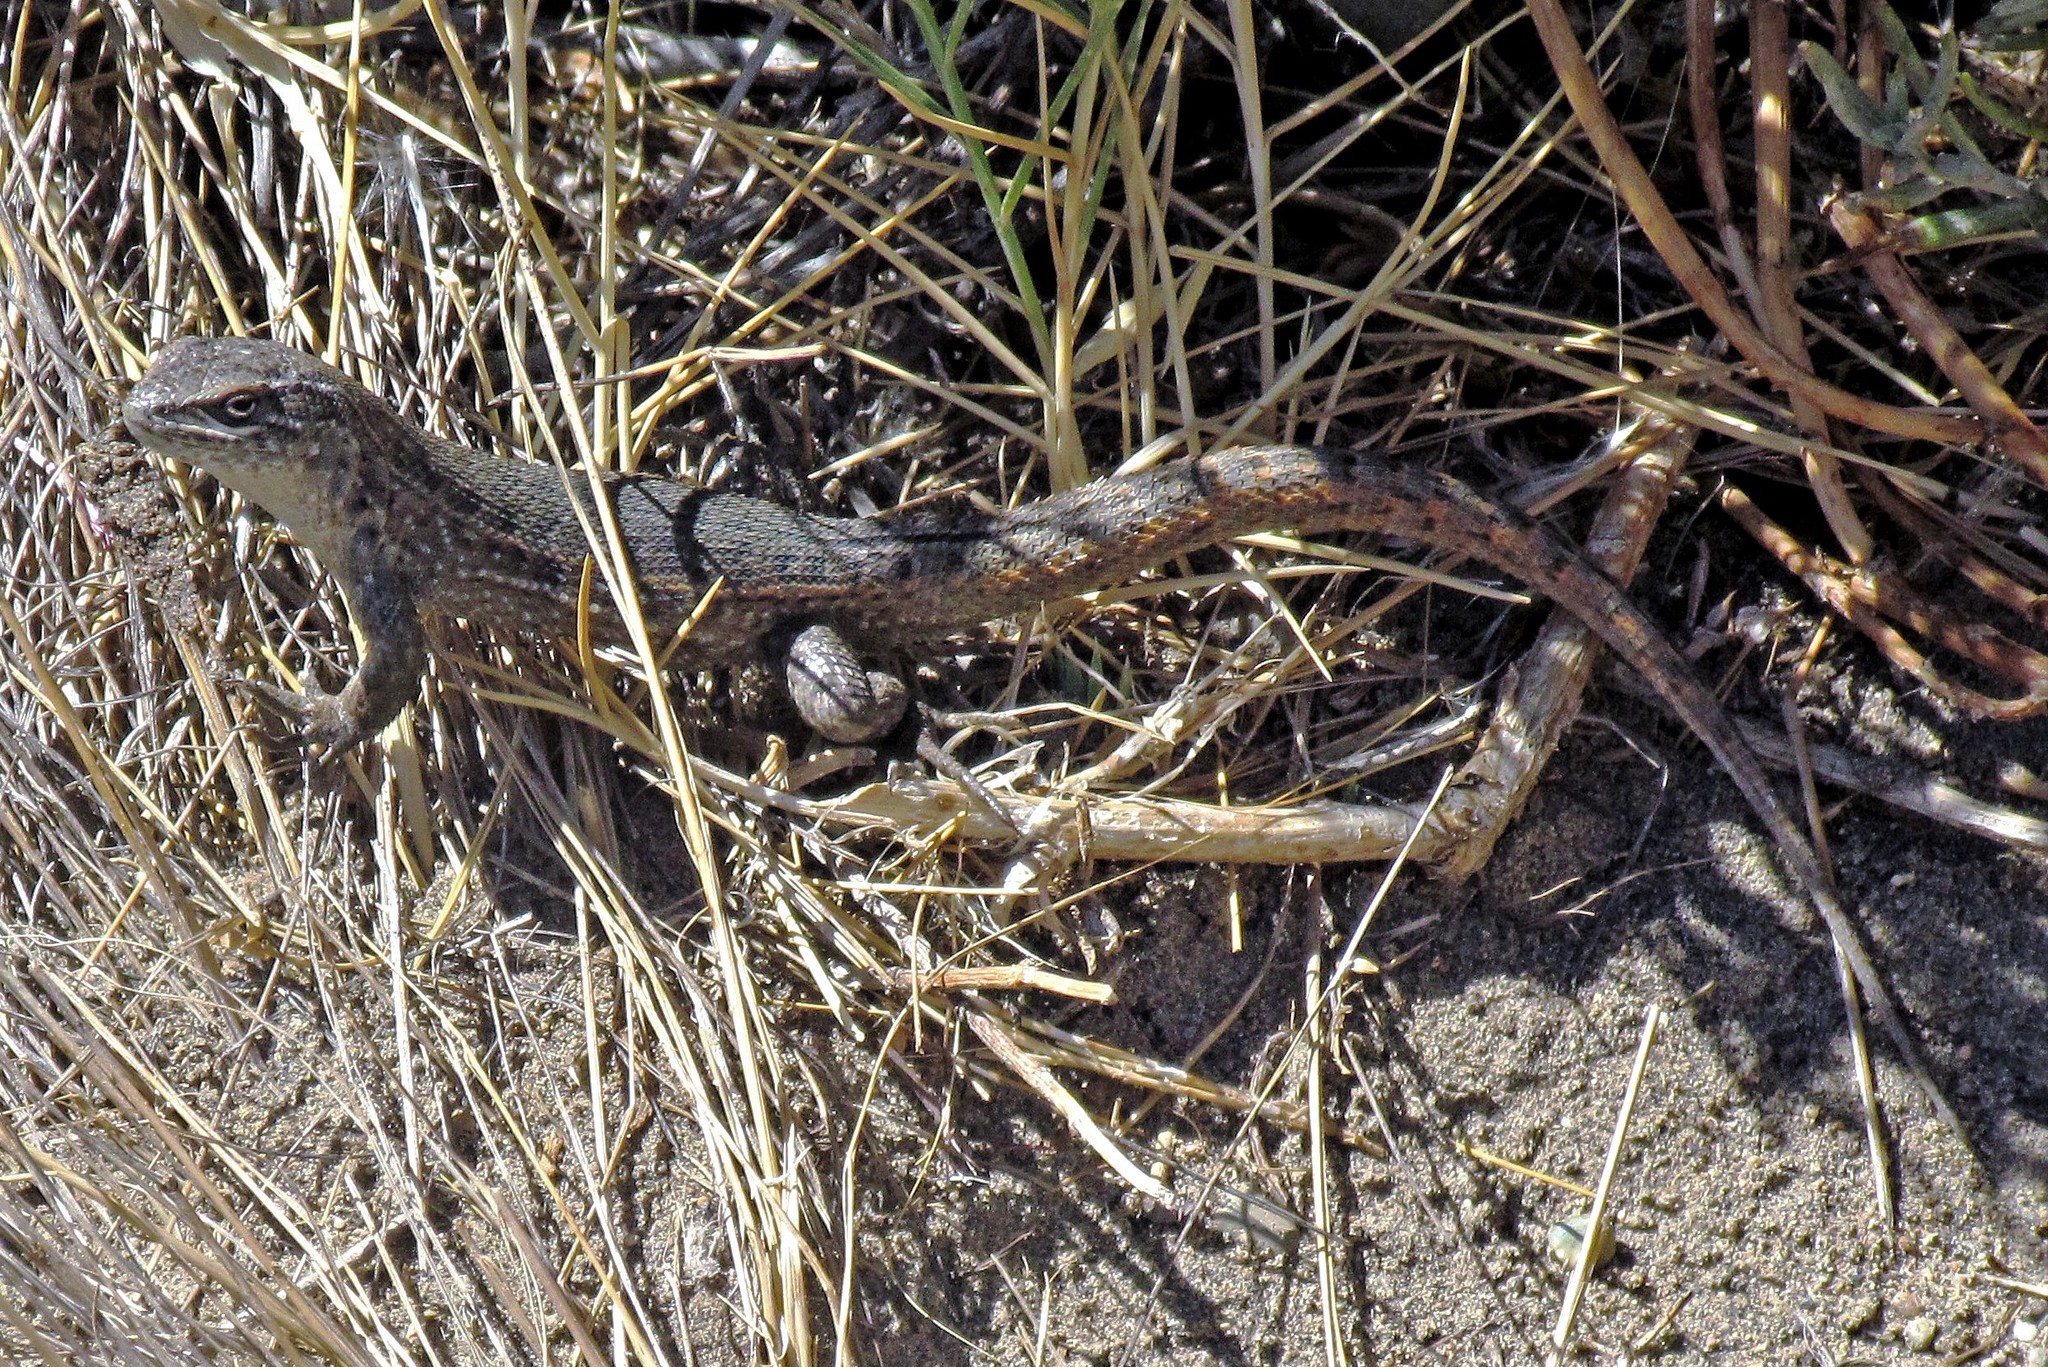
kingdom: Animalia
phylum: Chordata
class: Squamata
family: Liolaemidae
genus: Liolaemus
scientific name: Liolaemus bibronii
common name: Bibron's tree iguana
